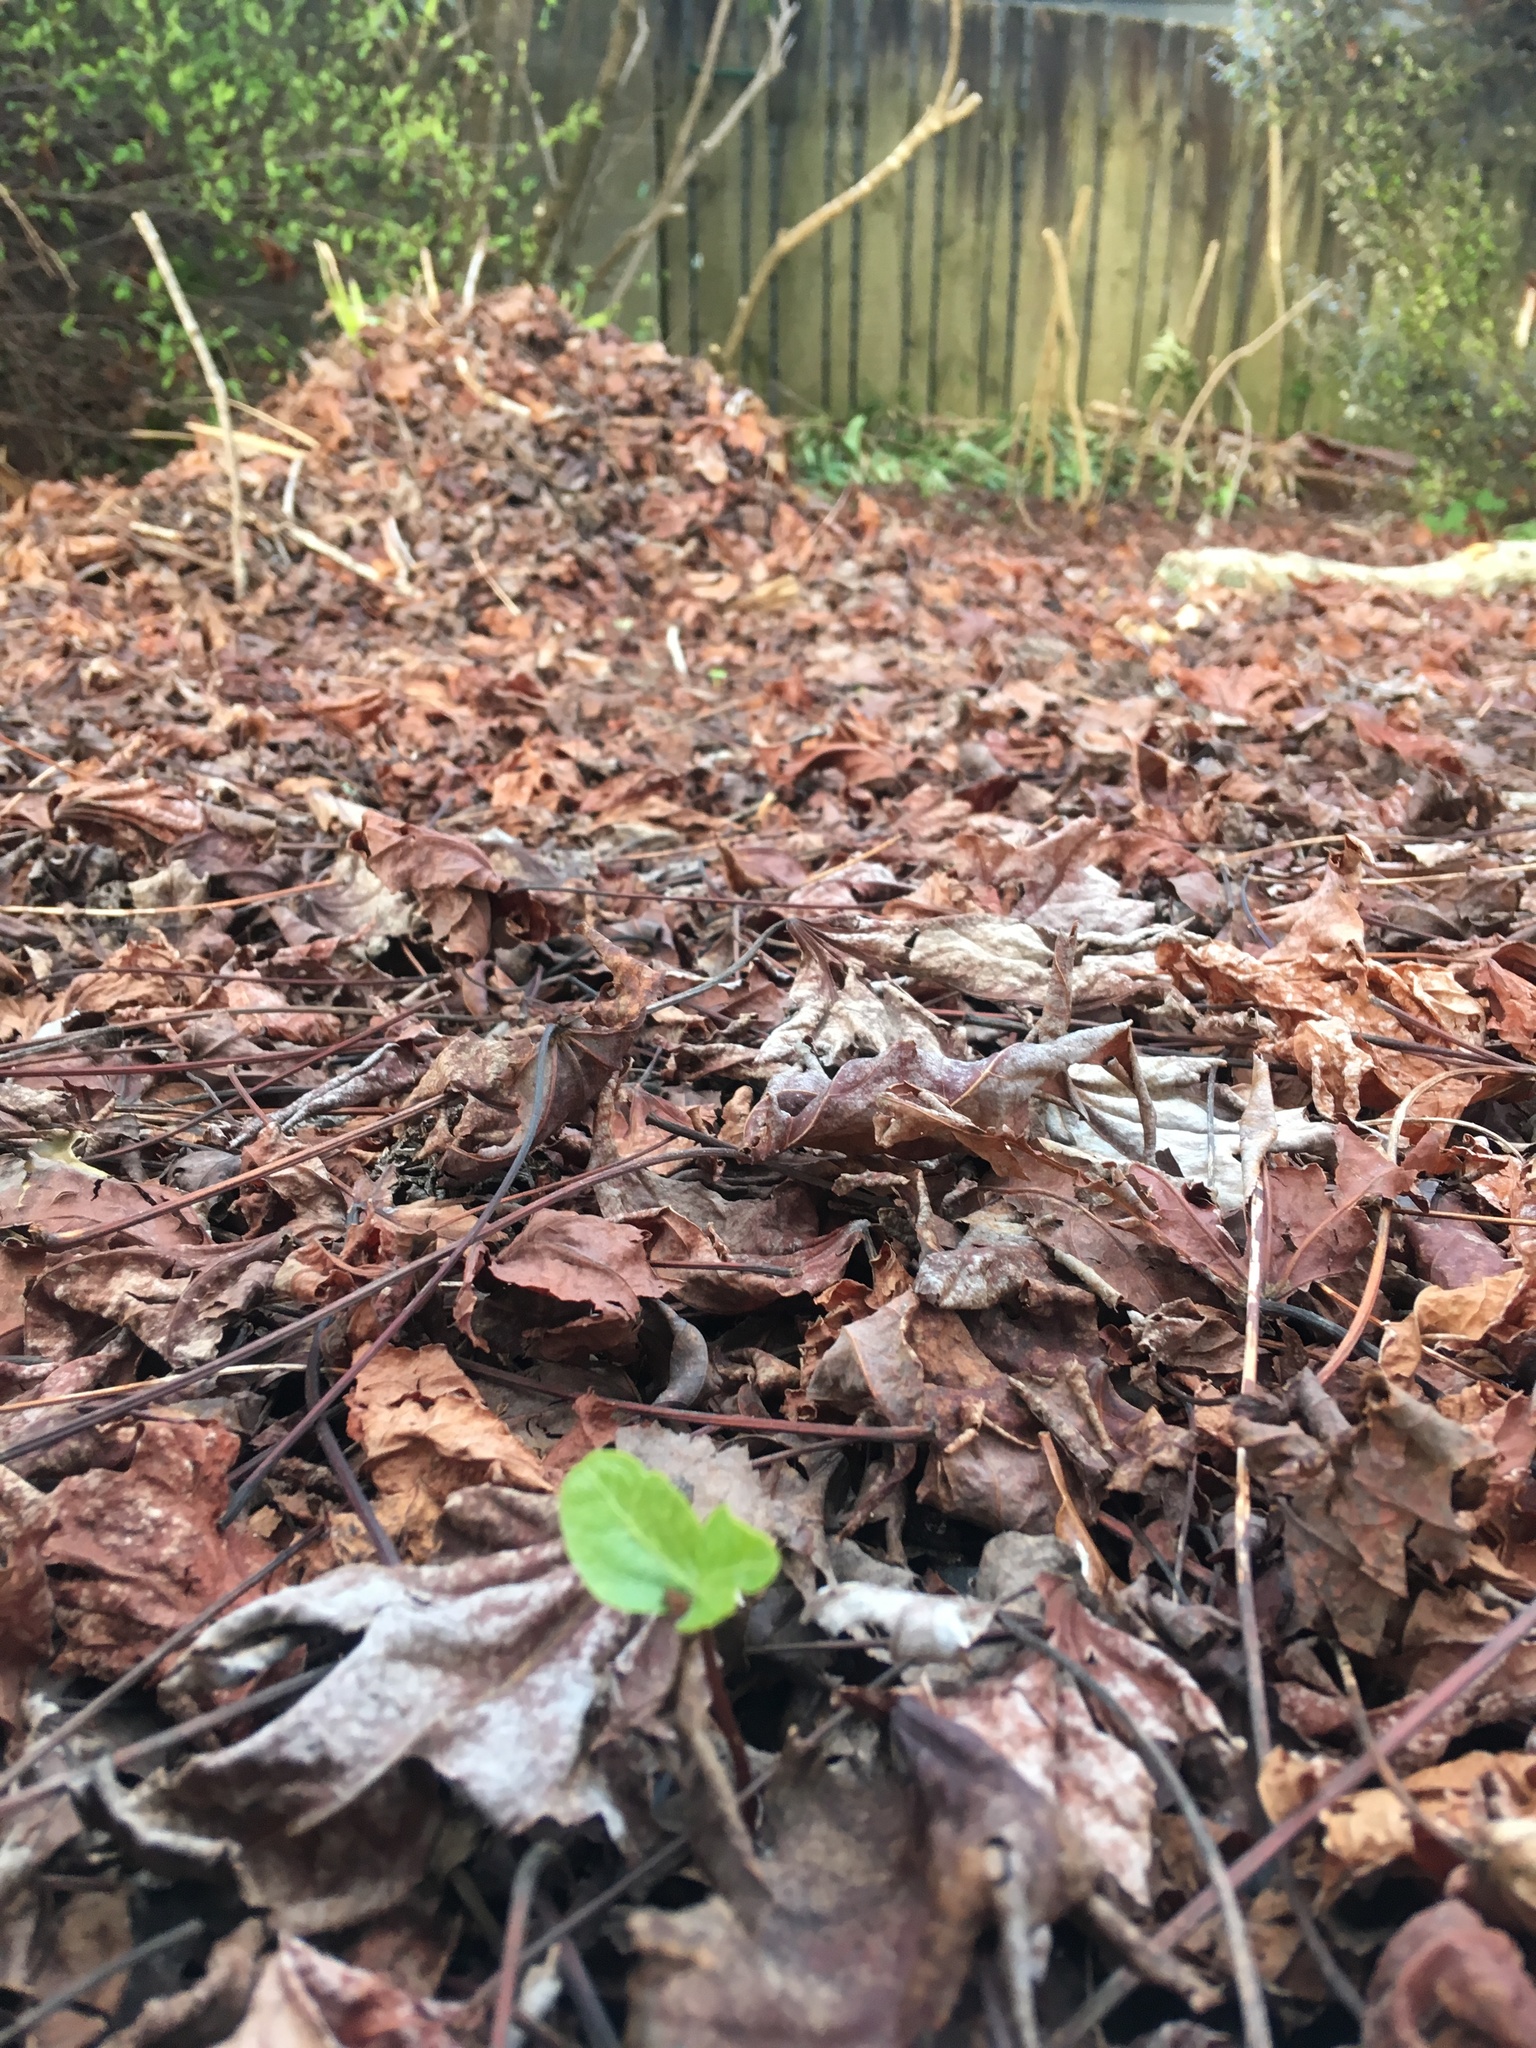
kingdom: Plantae
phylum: Tracheophyta
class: Magnoliopsida
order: Apiales
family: Araliaceae
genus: Hedera
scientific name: Hedera helix
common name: Ivy
